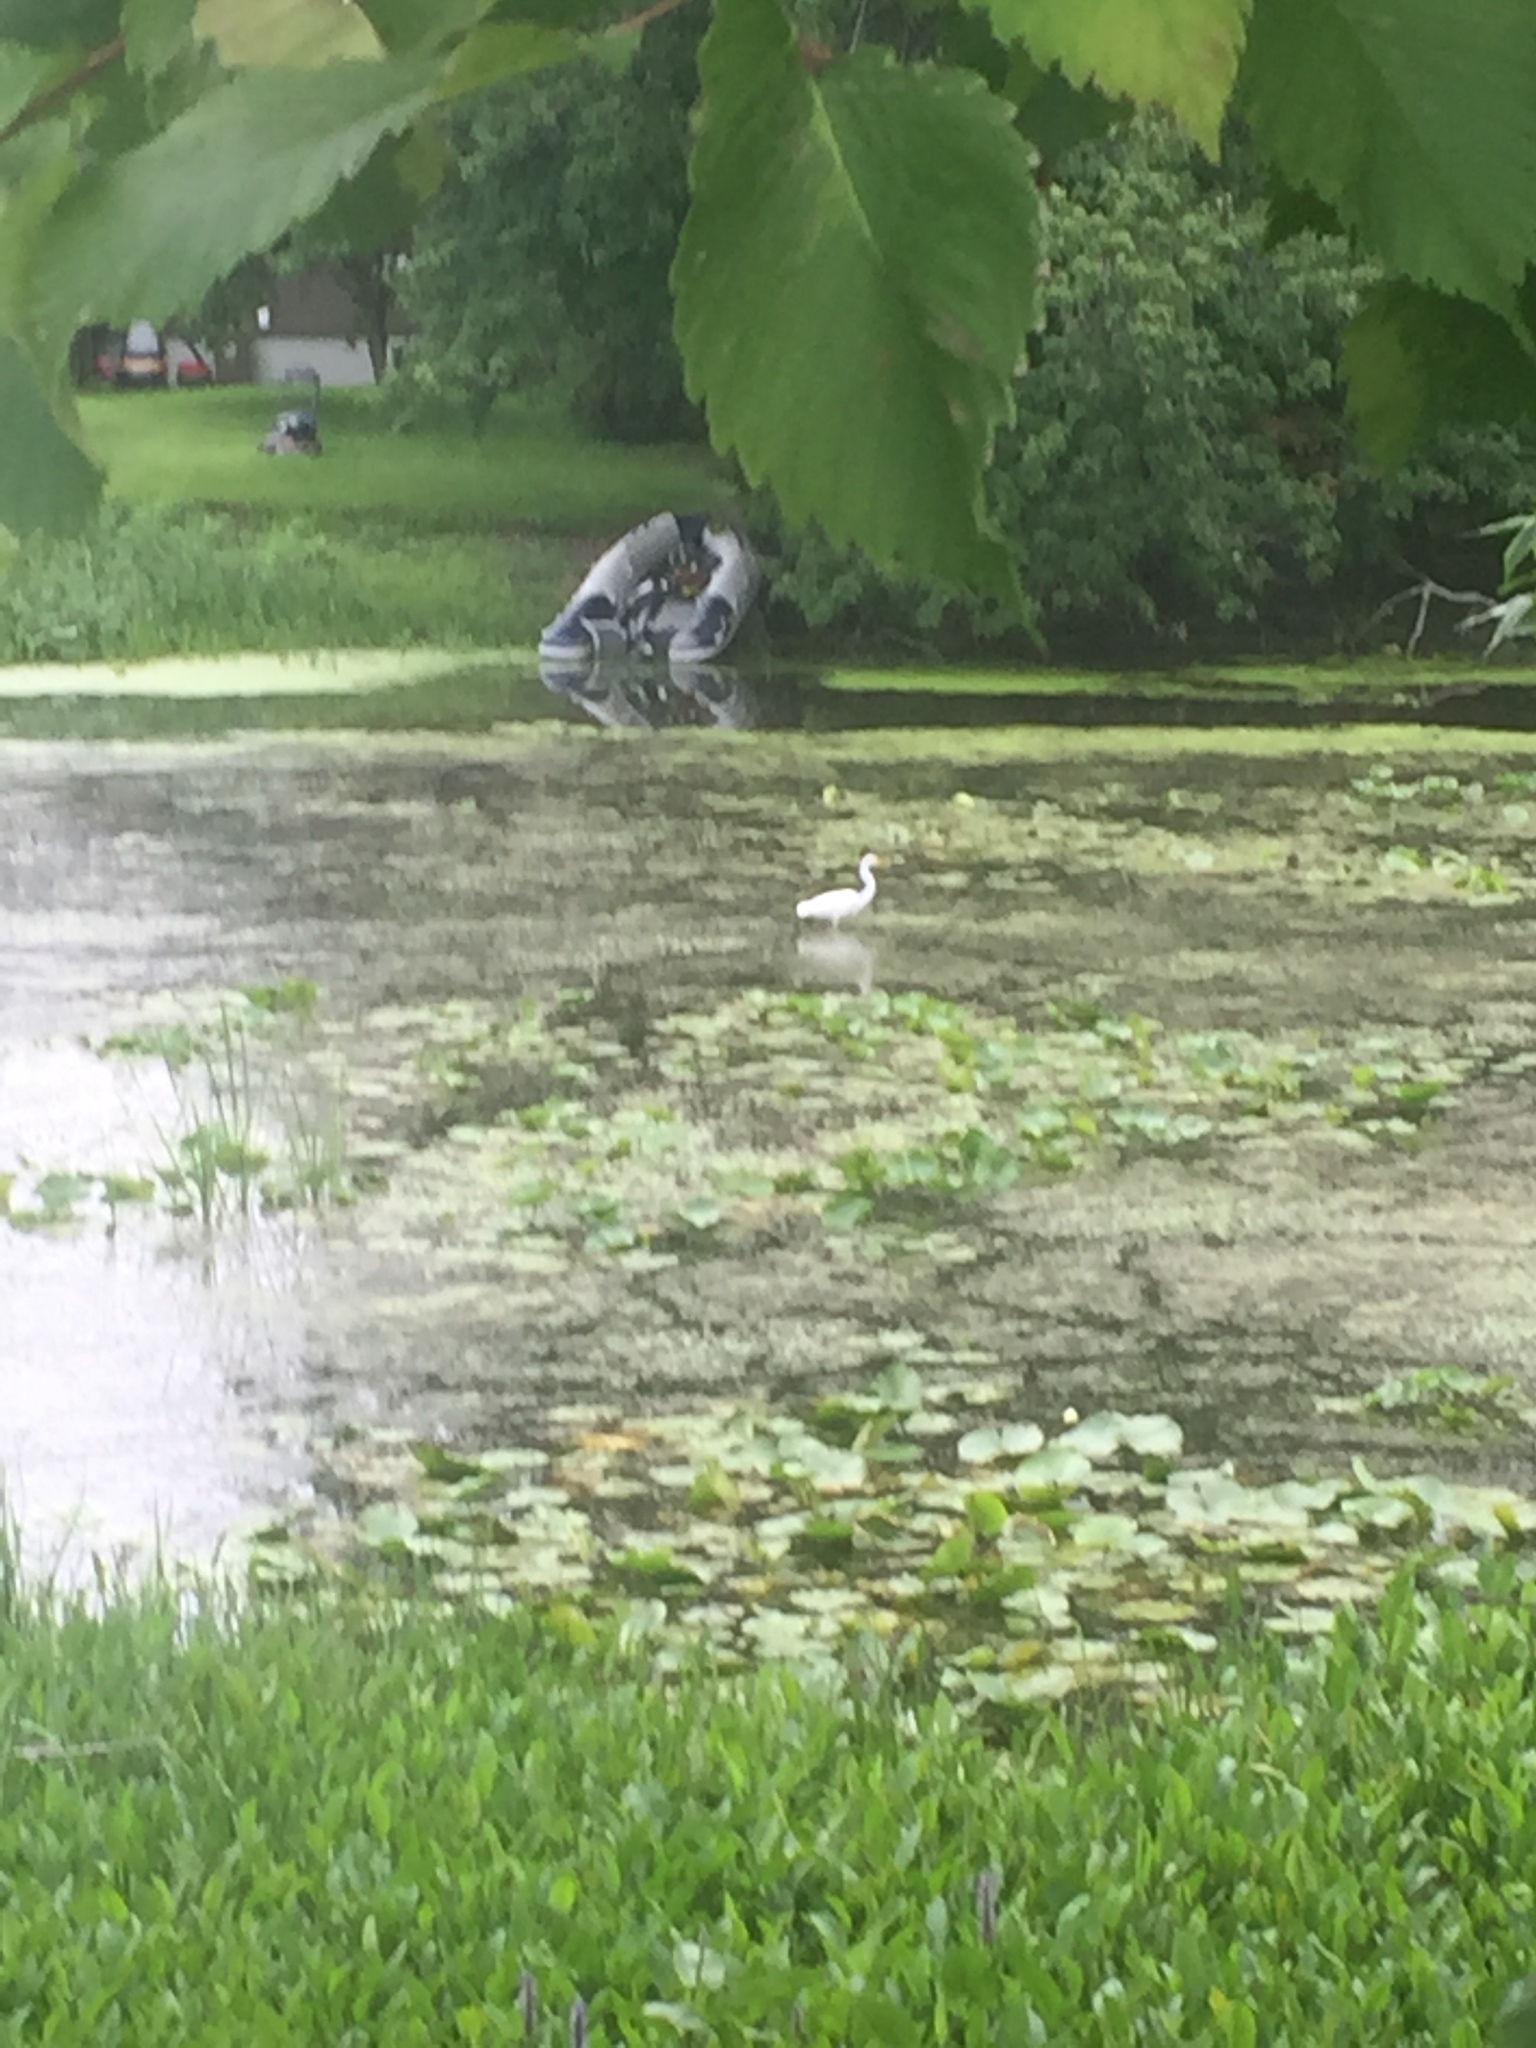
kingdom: Animalia
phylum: Chordata
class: Aves
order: Pelecaniformes
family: Ardeidae
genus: Ardea
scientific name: Ardea alba
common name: Great egret
